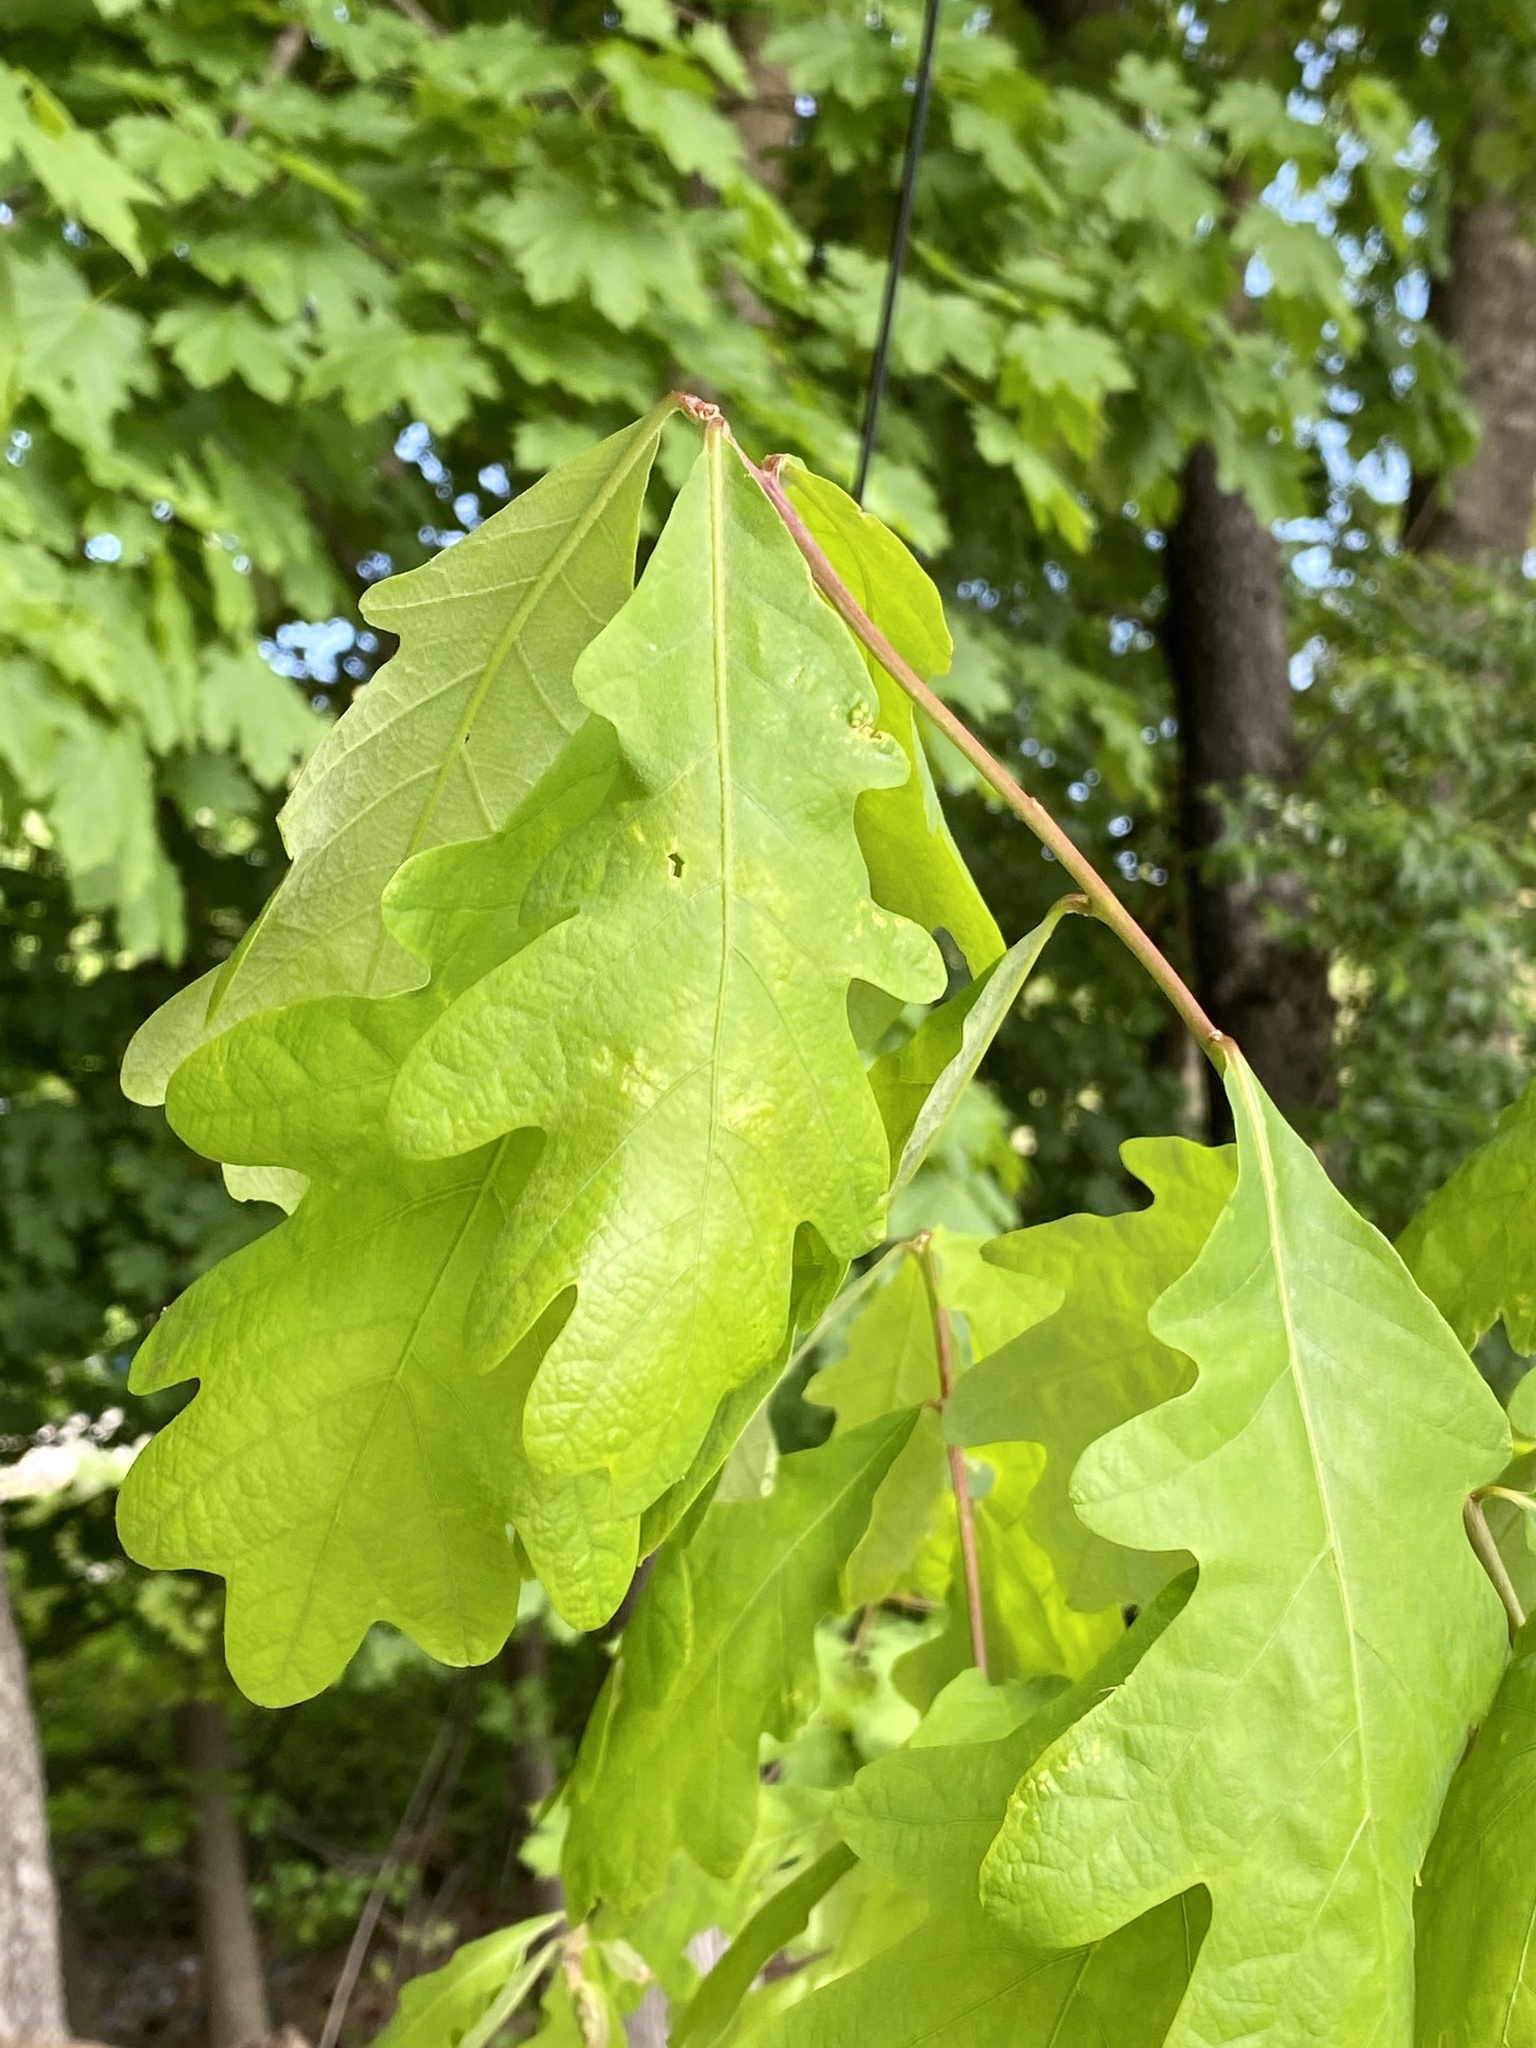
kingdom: Plantae
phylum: Tracheophyta
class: Magnoliopsida
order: Fagales
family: Fagaceae
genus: Quercus
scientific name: Quercus alba
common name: White oak
